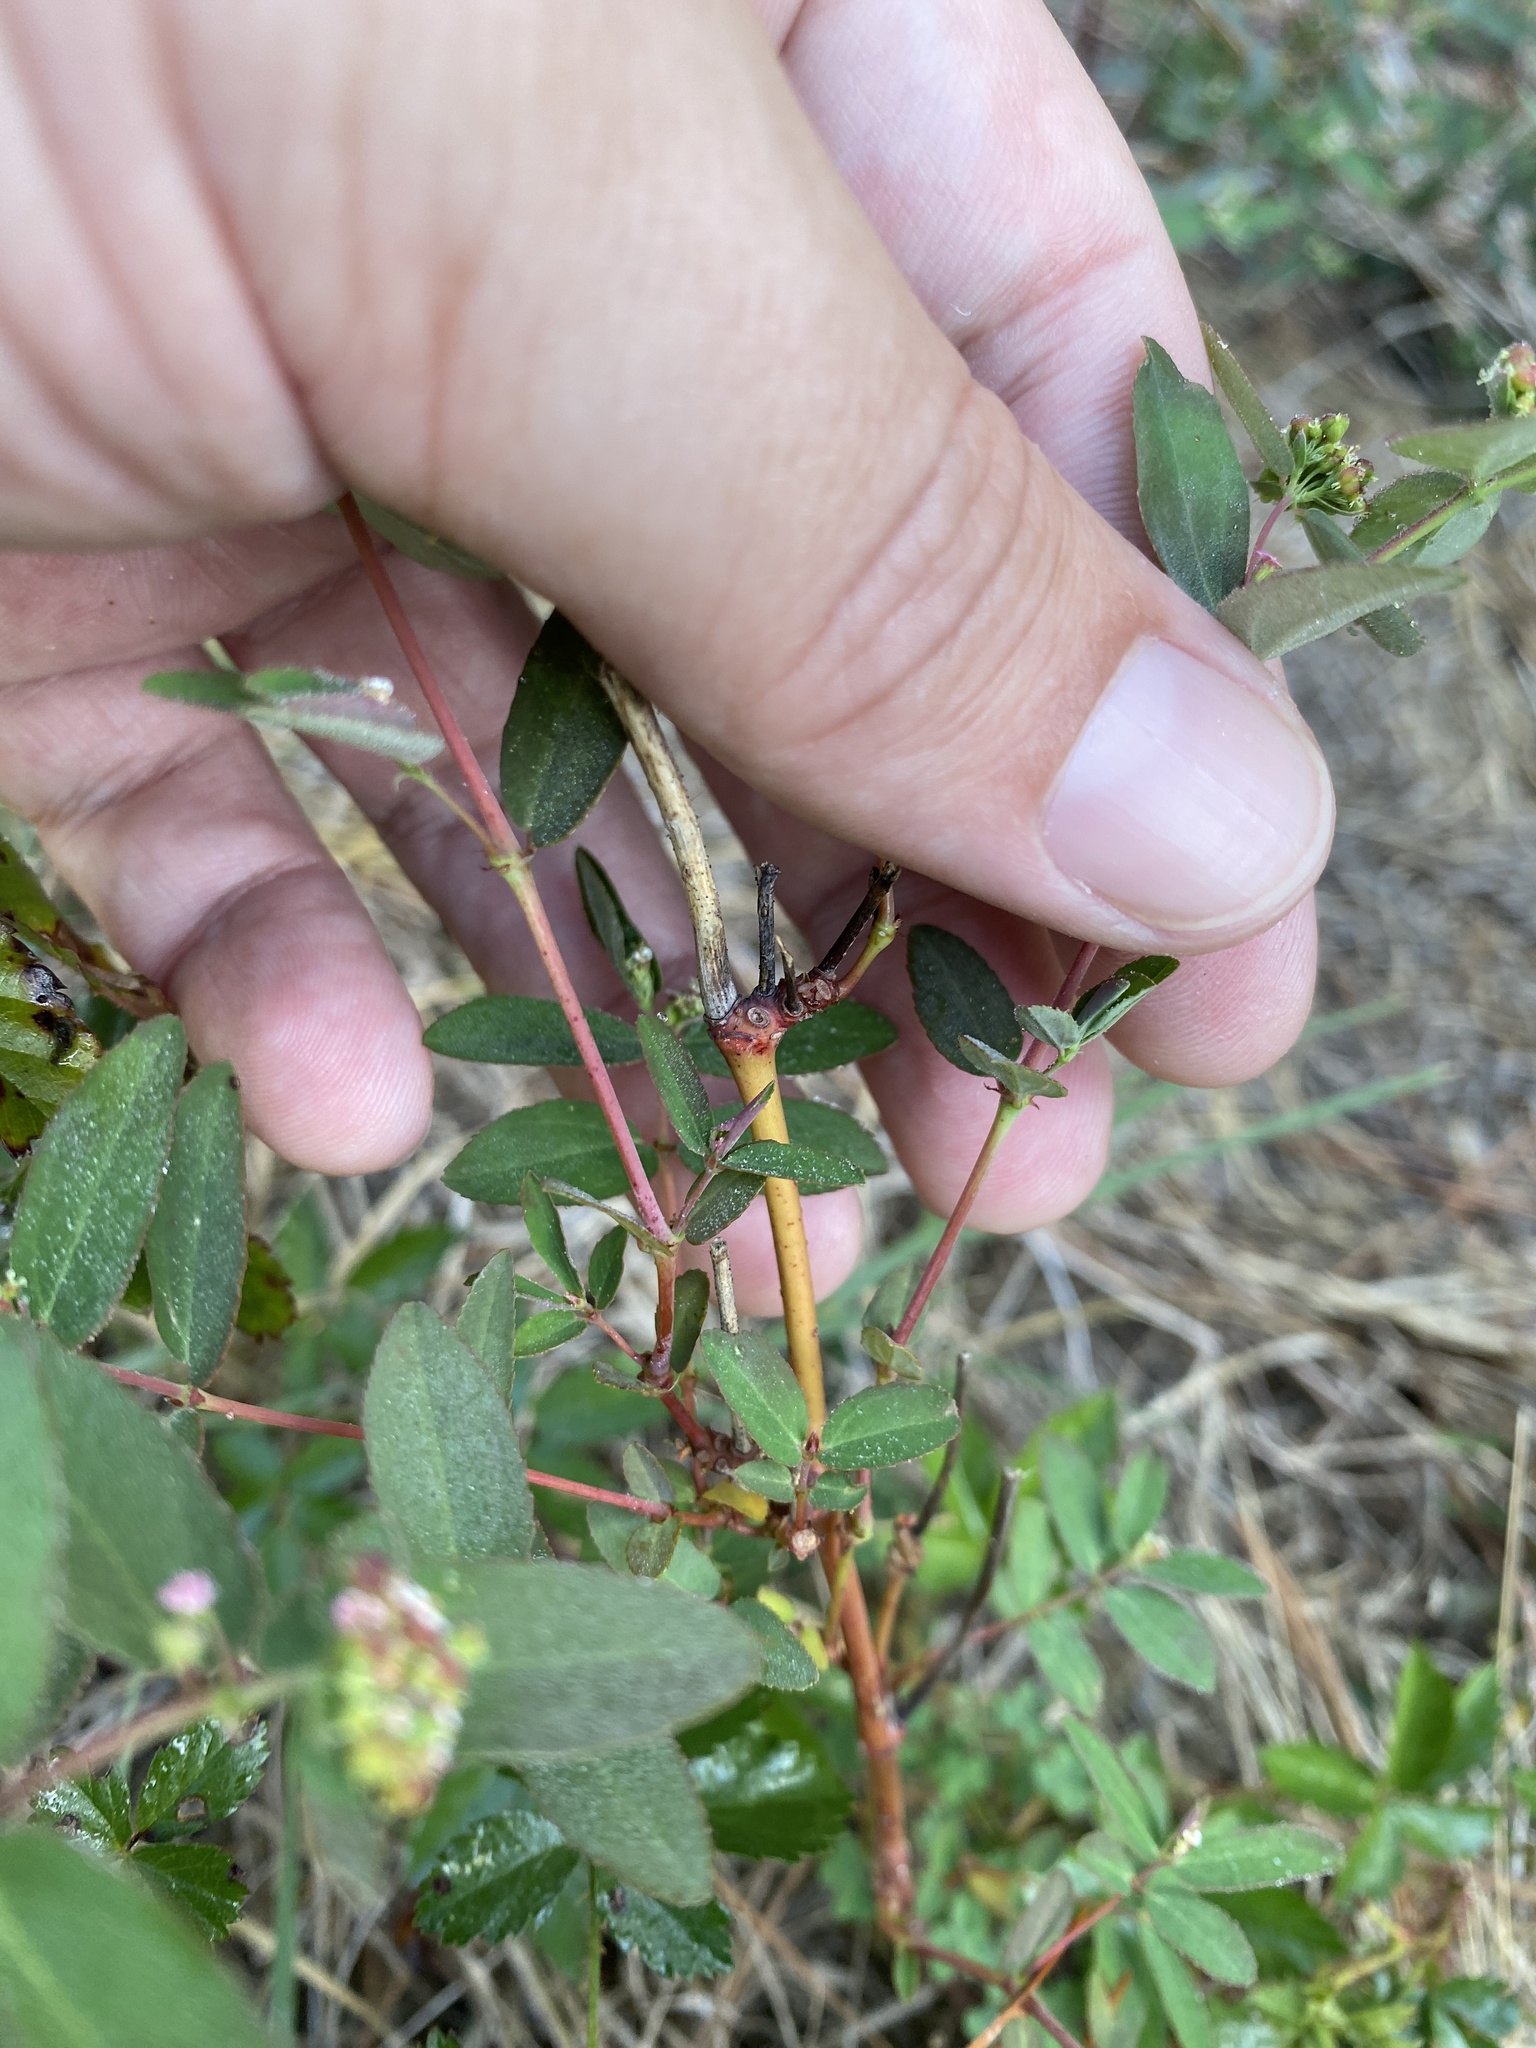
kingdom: Plantae
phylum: Tracheophyta
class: Magnoliopsida
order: Malpighiales
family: Euphorbiaceae
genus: Euphorbia
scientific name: Euphorbia hypericifolia
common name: Graceful sandmat
